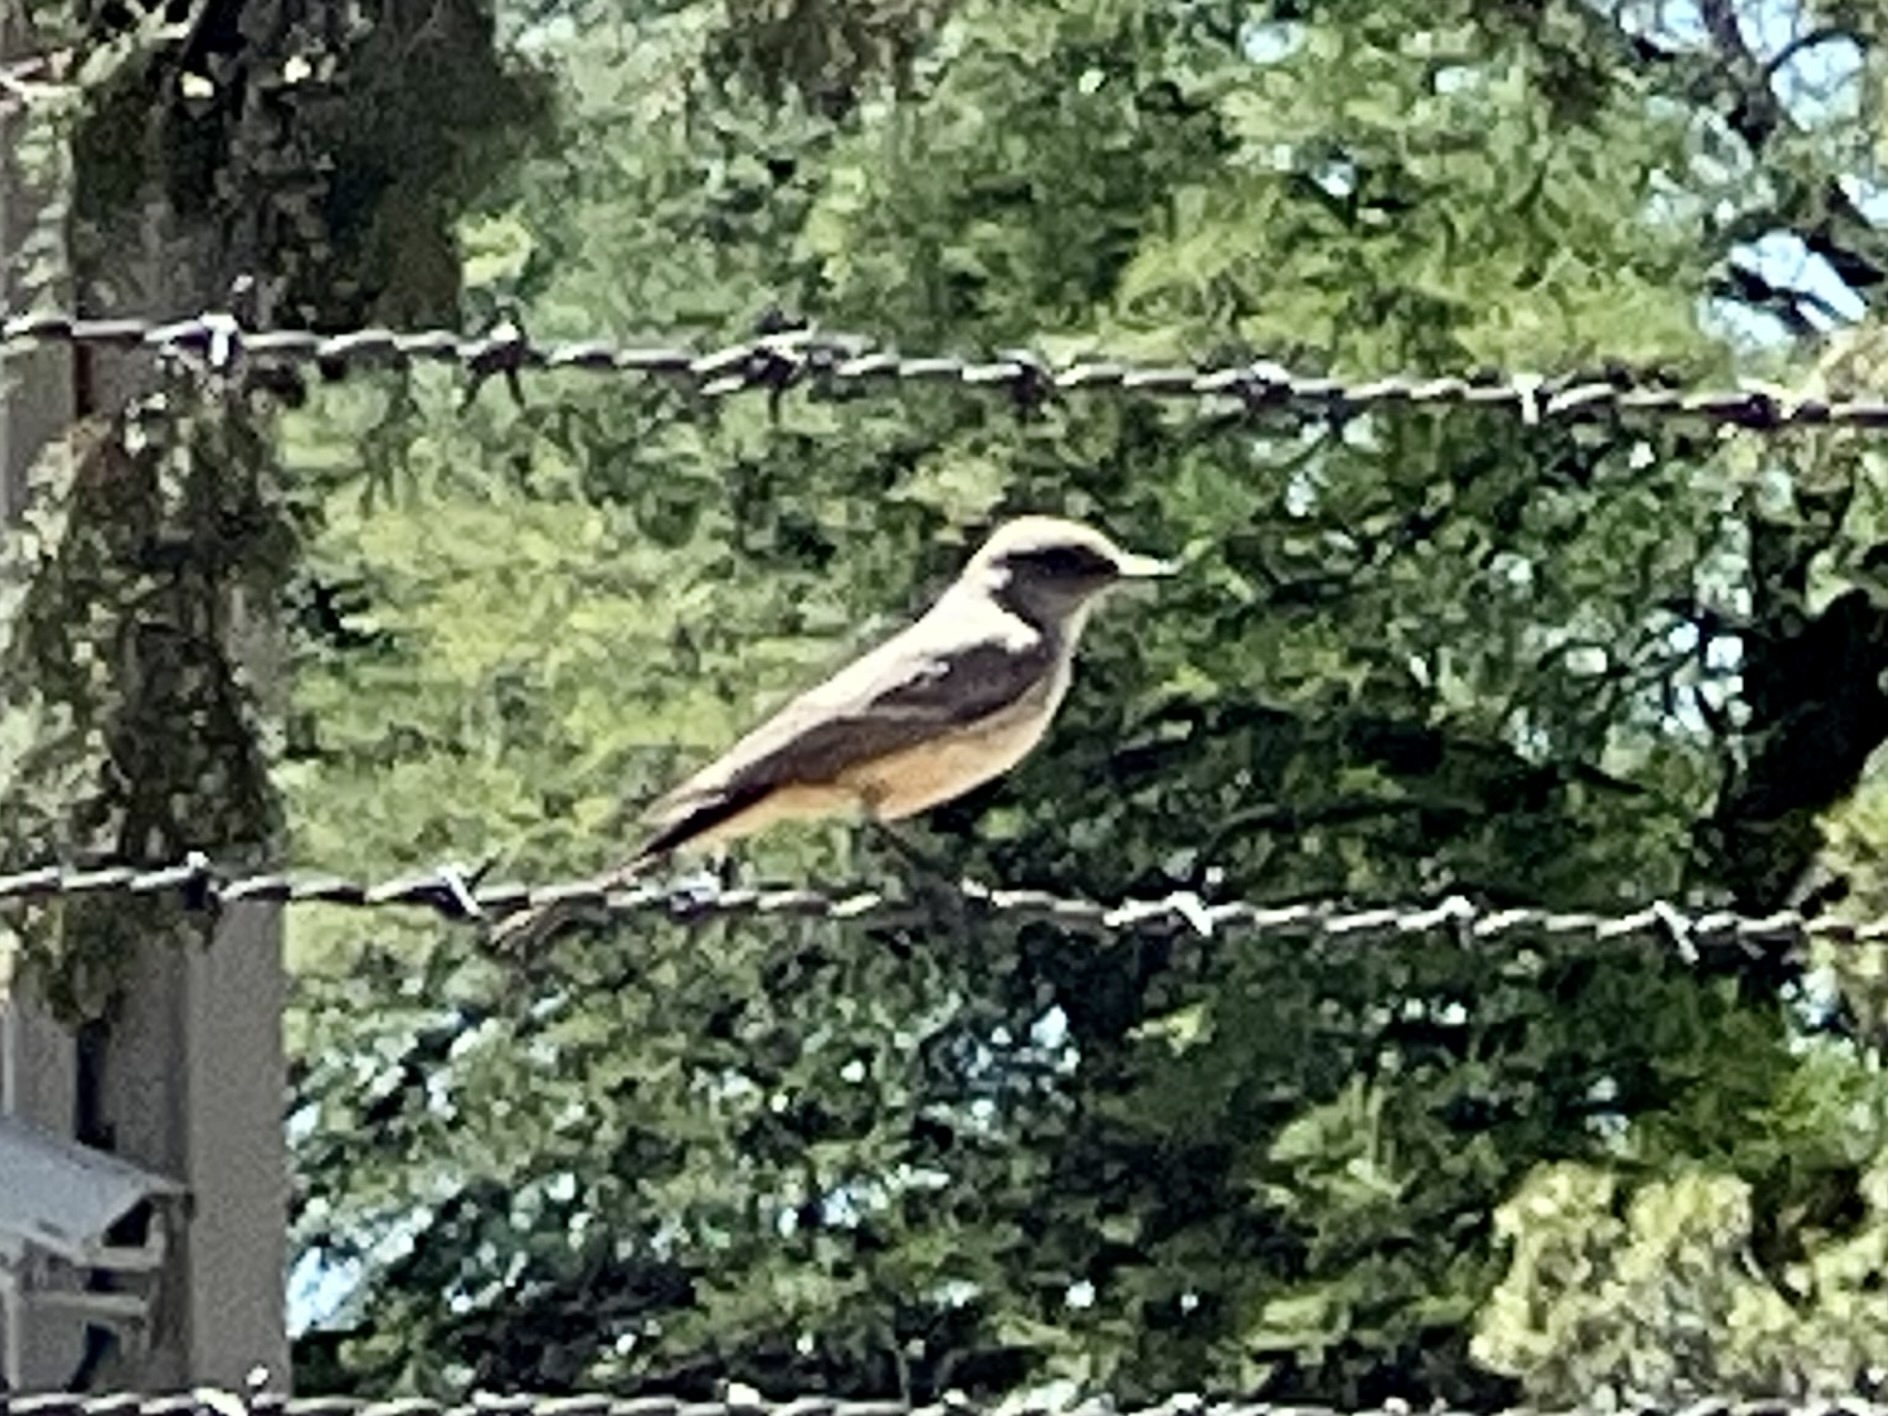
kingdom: Animalia
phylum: Chordata
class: Aves
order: Passeriformes
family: Tyrannidae
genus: Sayornis
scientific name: Sayornis saya
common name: Say's phoebe
